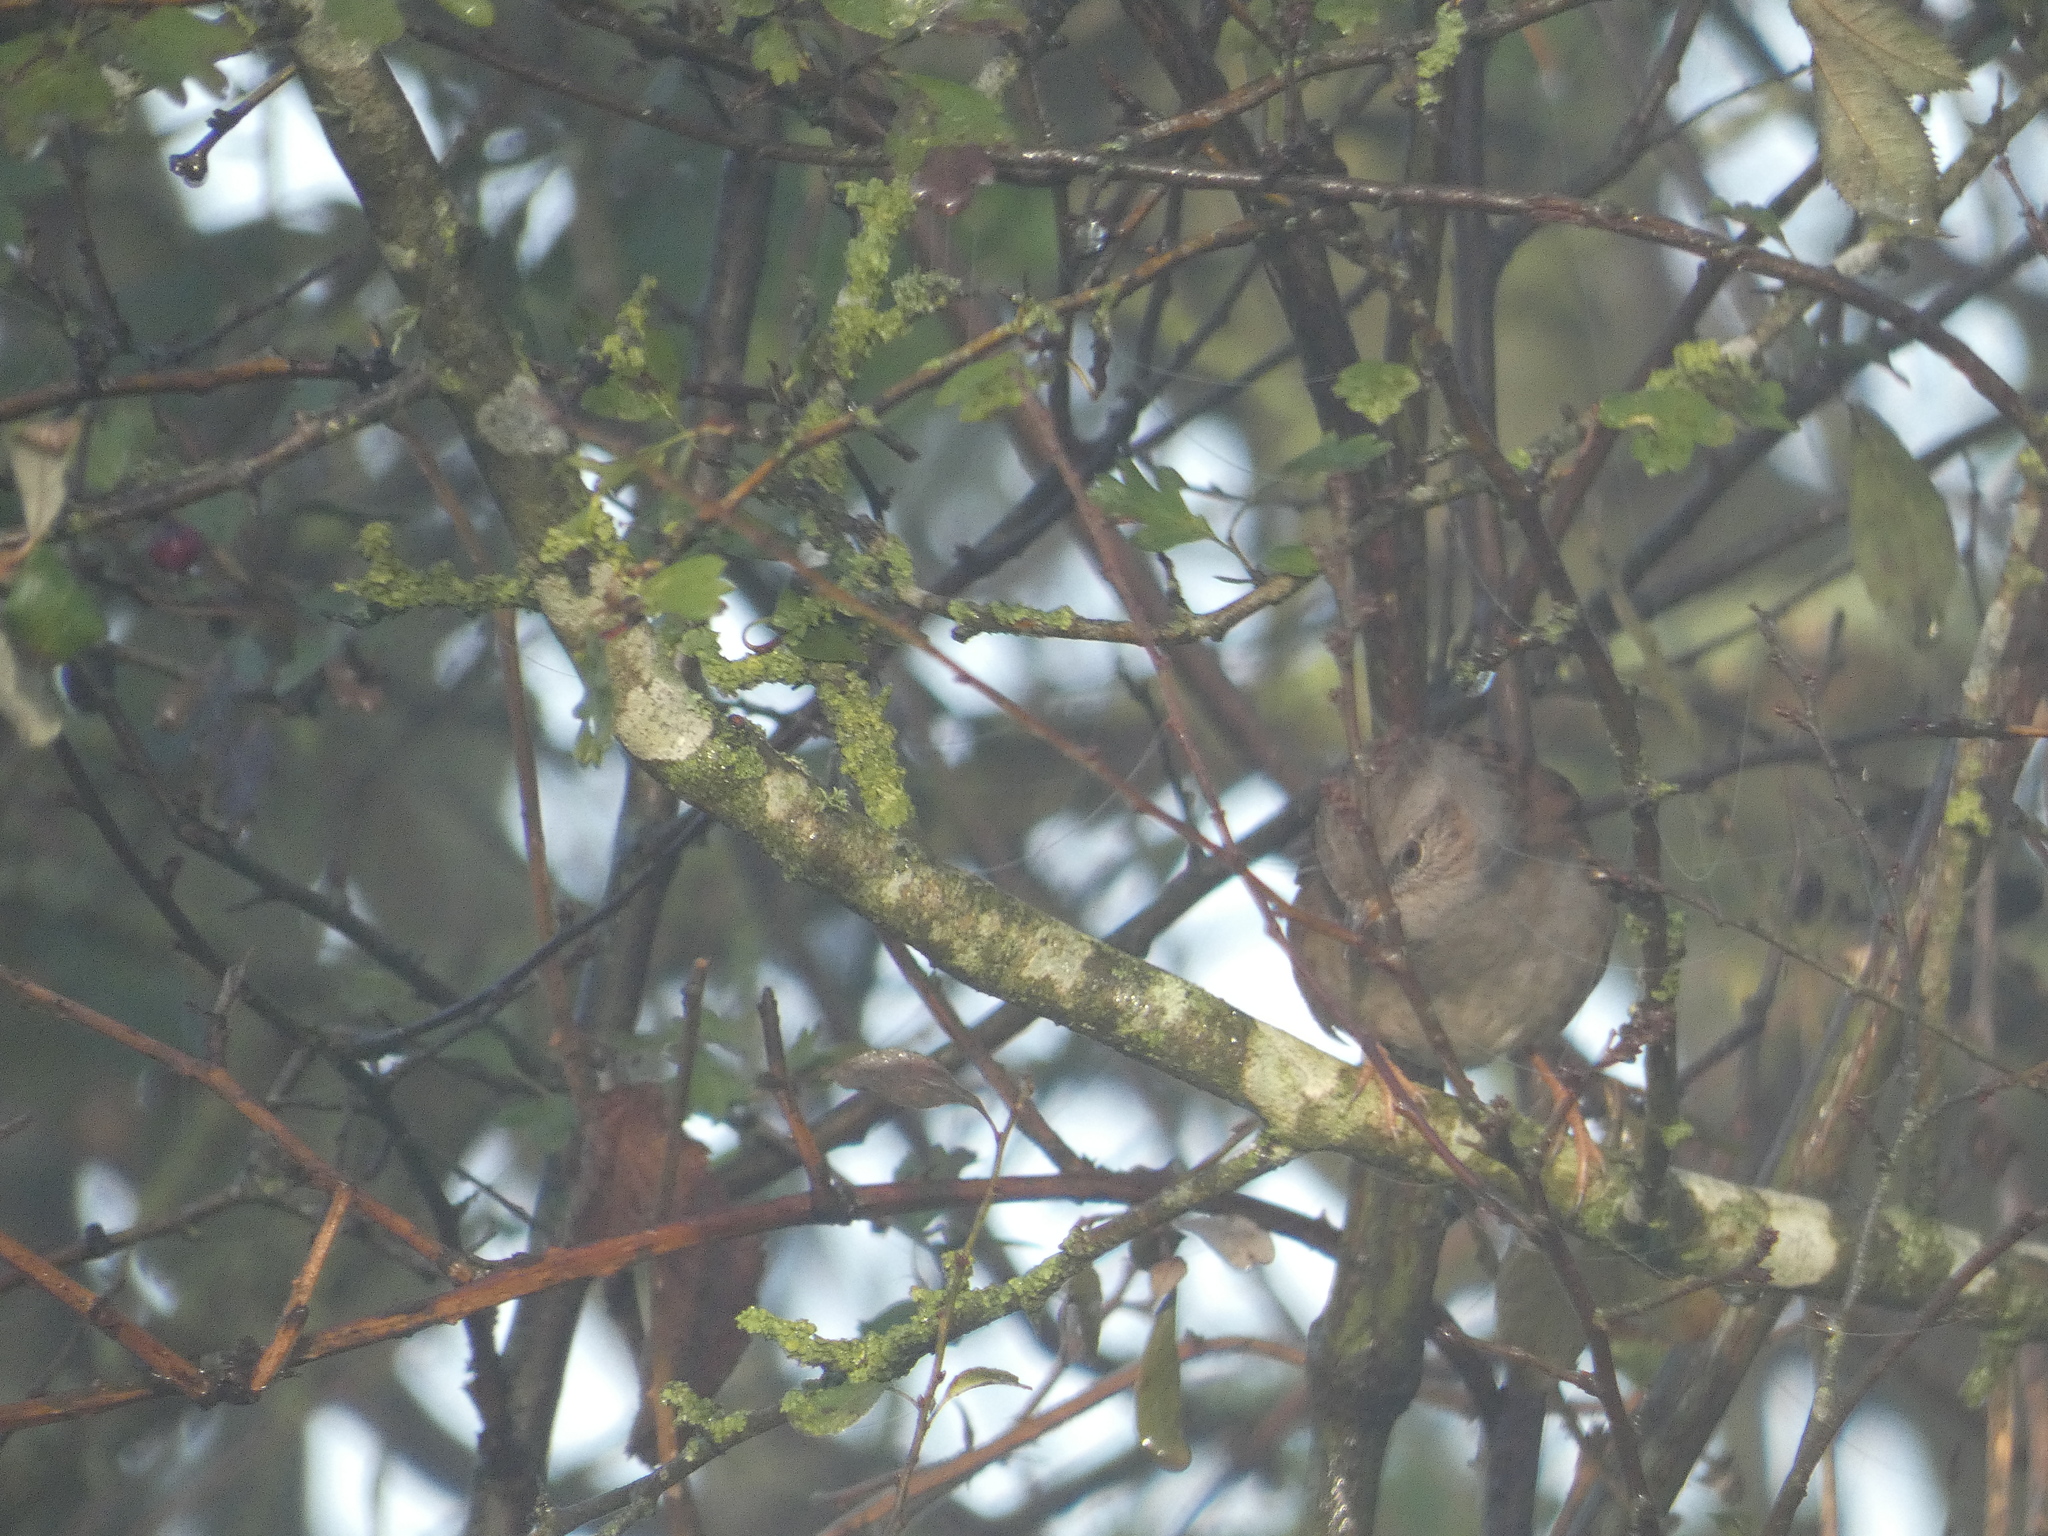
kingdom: Animalia
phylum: Chordata
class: Aves
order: Passeriformes
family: Prunellidae
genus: Prunella
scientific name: Prunella modularis
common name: Dunnock
